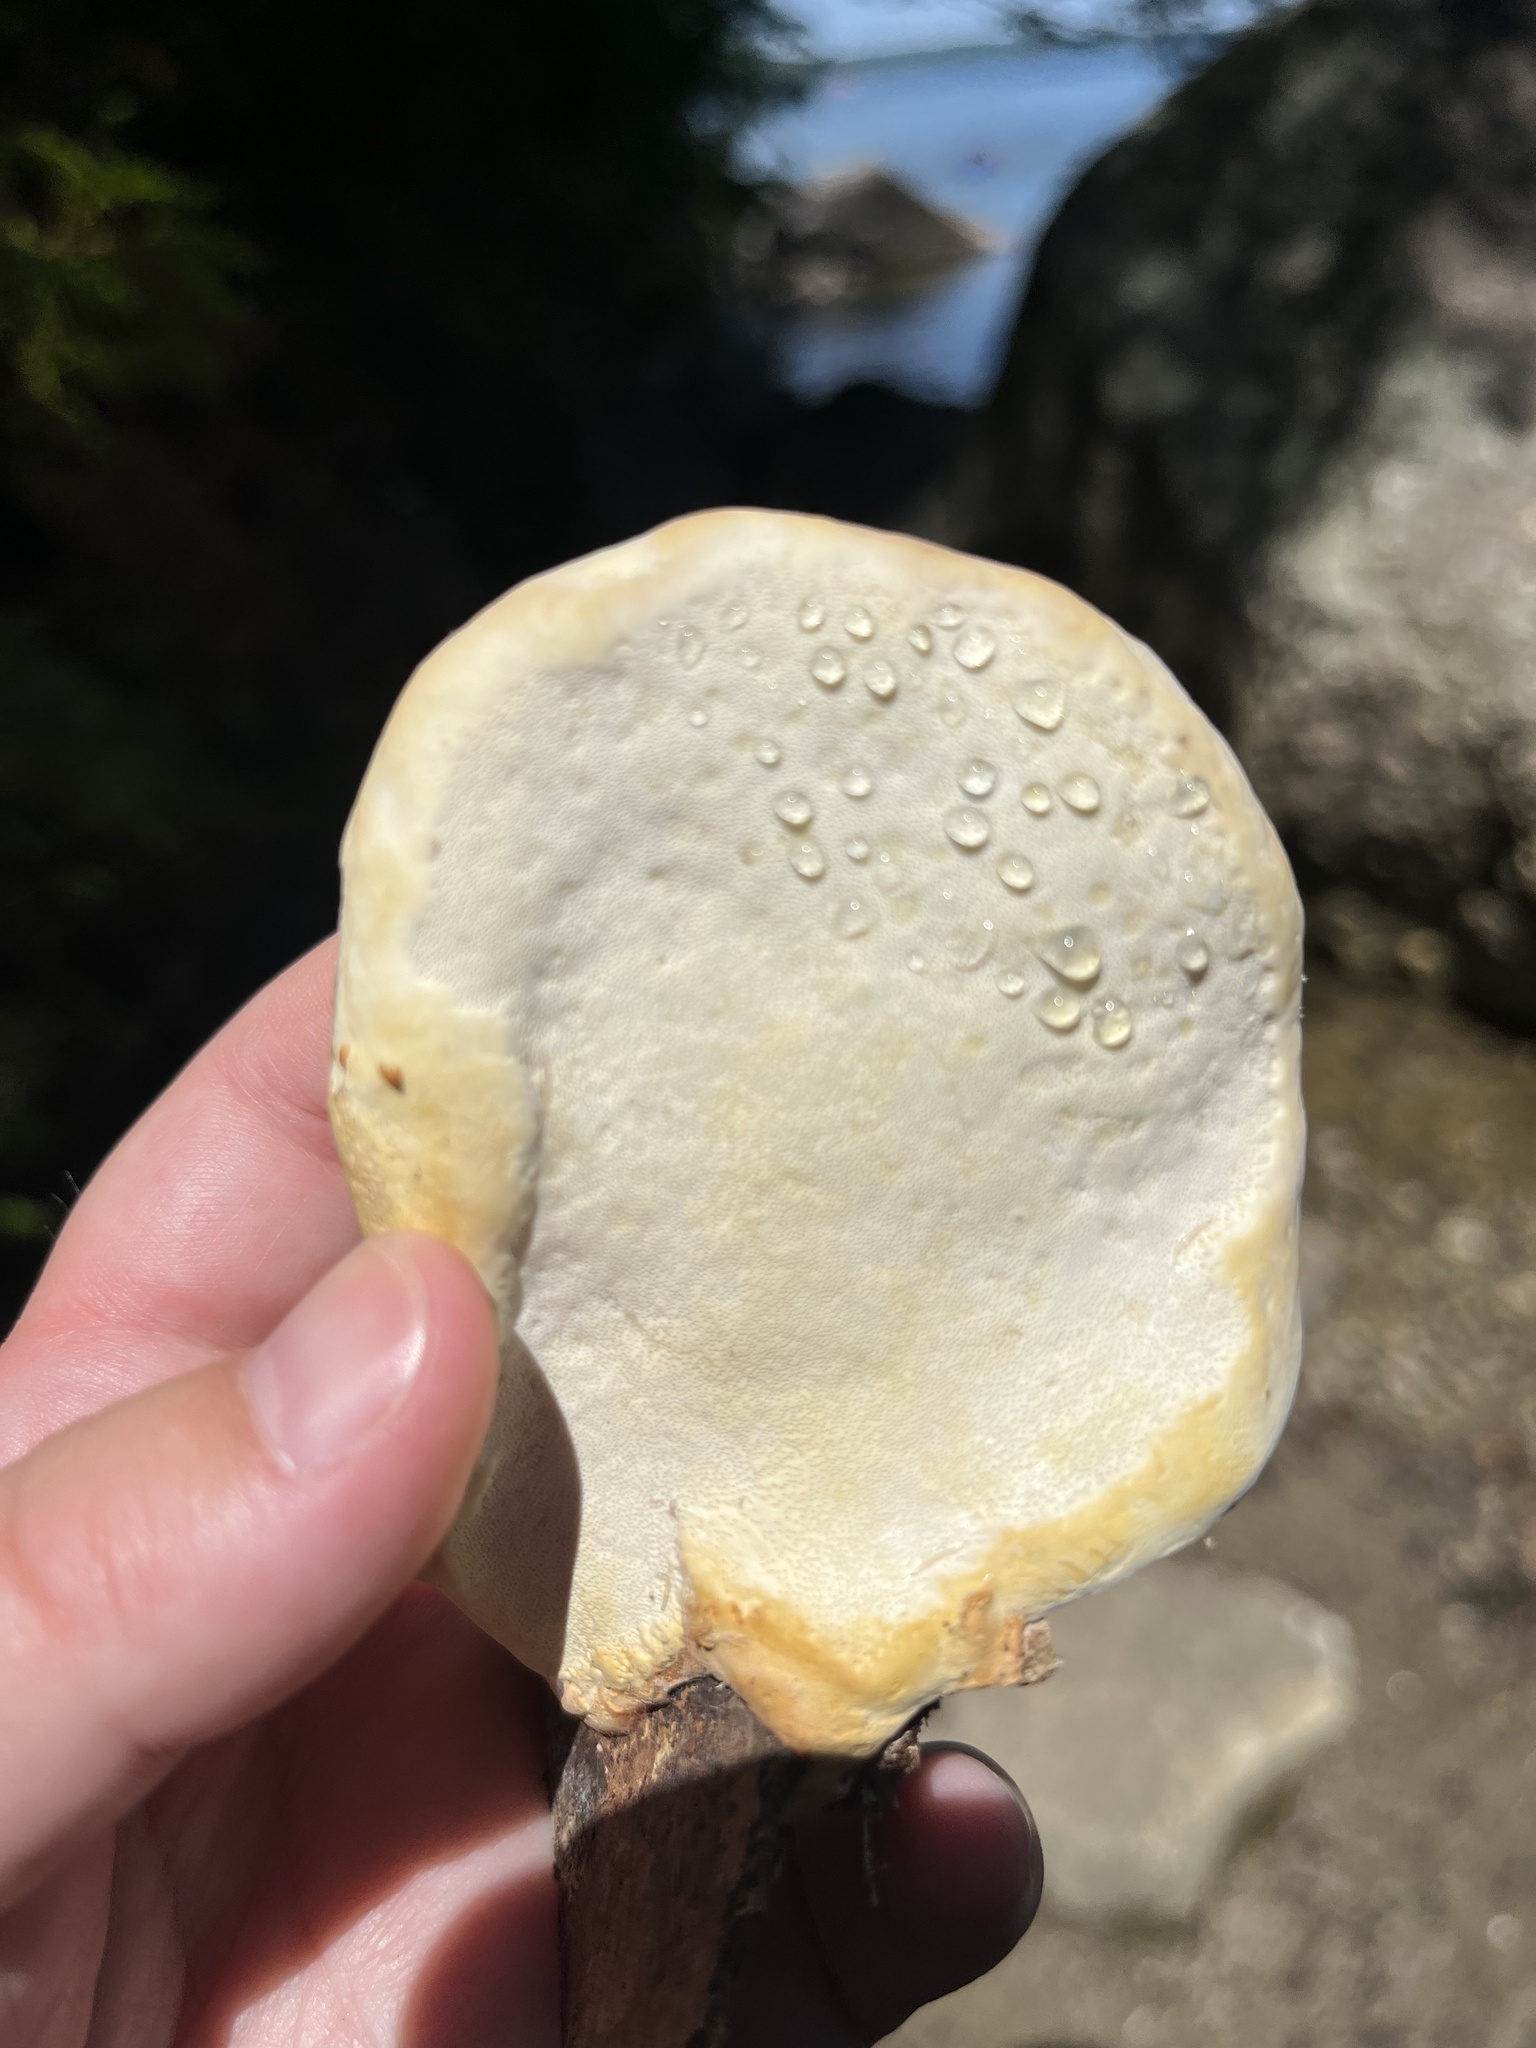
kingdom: Fungi
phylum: Basidiomycota
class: Agaricomycetes
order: Polyporales
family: Fomitopsidaceae
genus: Fomitopsis
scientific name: Fomitopsis mounceae
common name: Northern red belt
